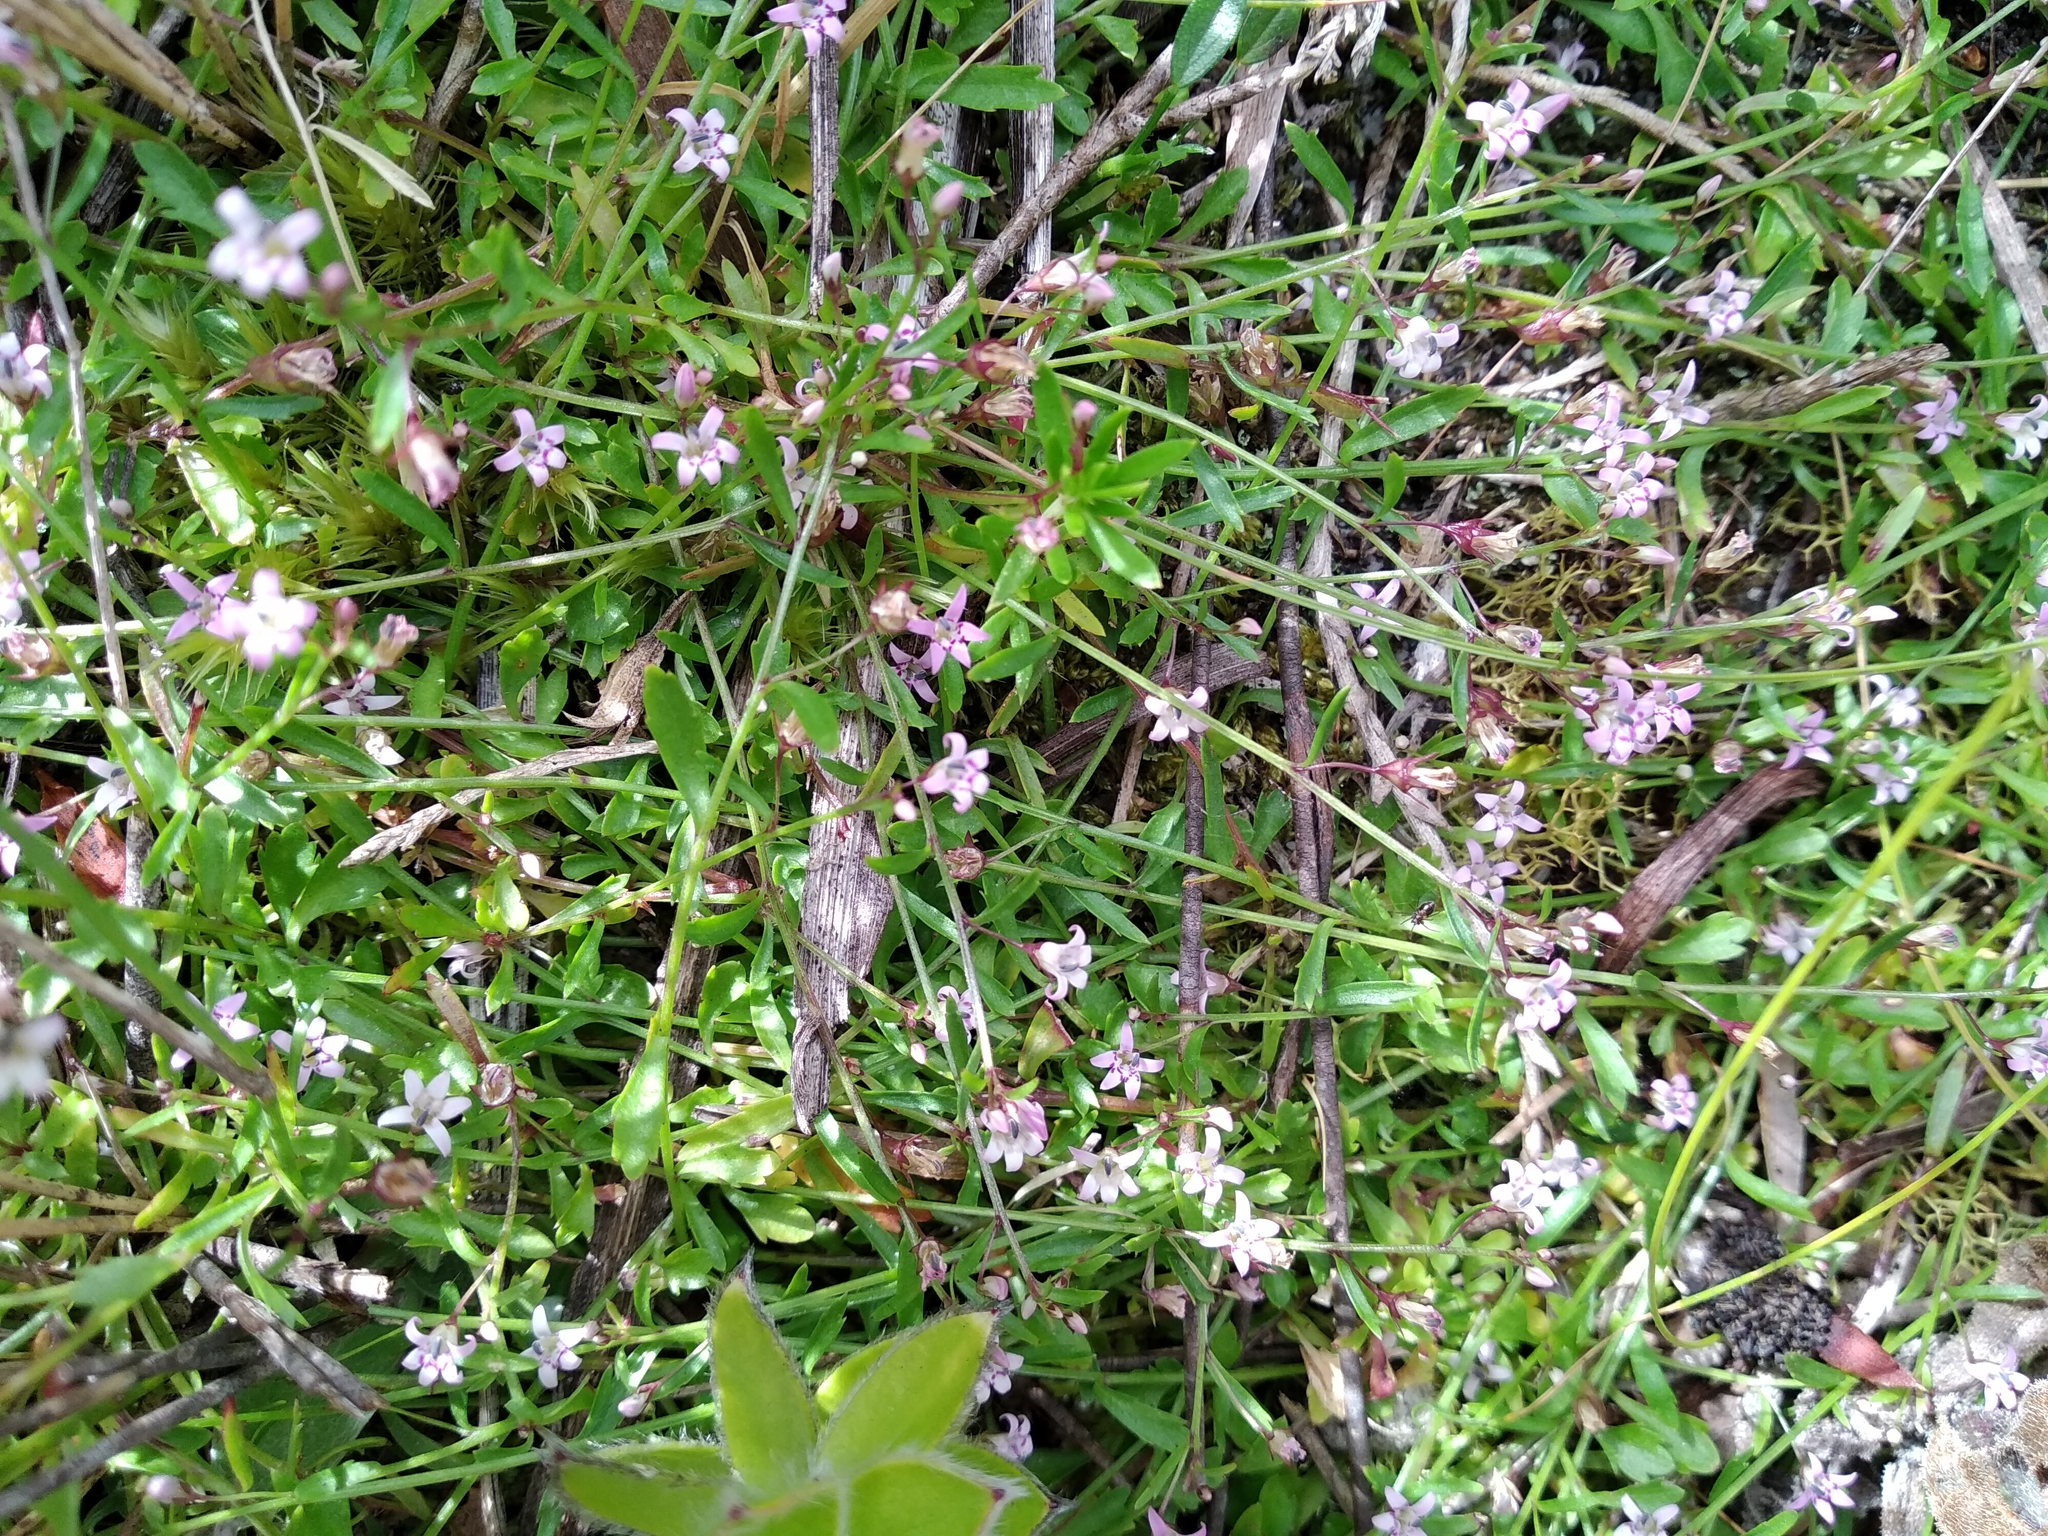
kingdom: Plantae
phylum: Tracheophyta
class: Magnoliopsida
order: Asterales
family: Campanulaceae
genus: Lobelia
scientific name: Lobelia eckloniana
